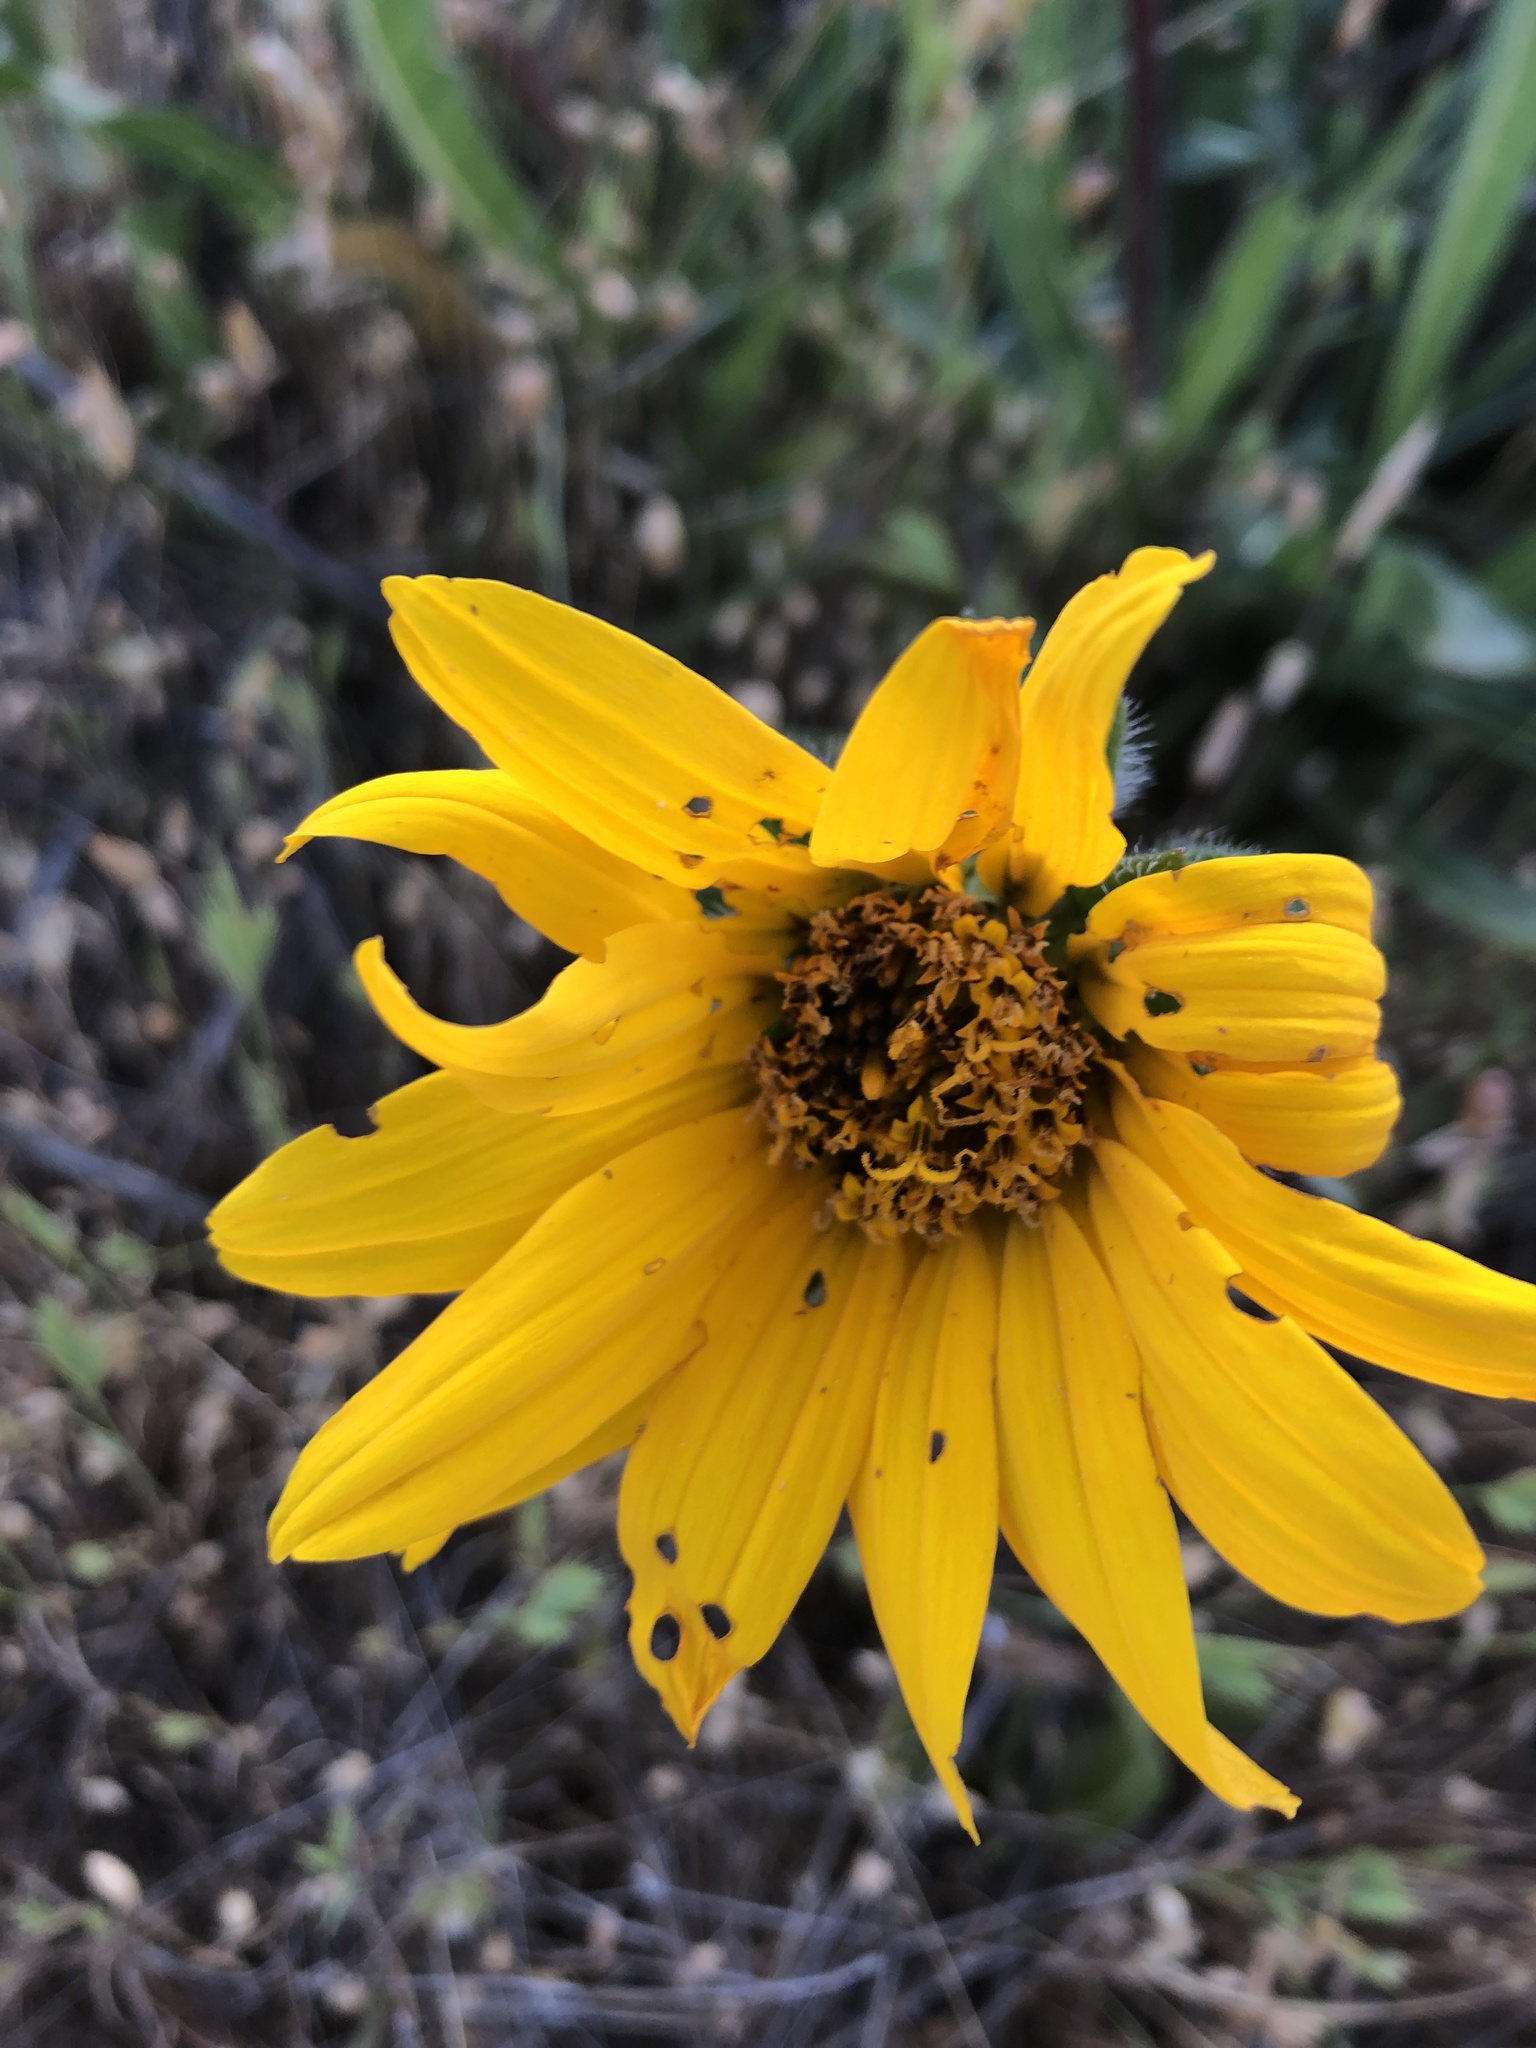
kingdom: Plantae
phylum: Tracheophyta
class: Magnoliopsida
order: Asterales
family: Asteraceae
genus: Wyethia
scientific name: Wyethia angustifolia
